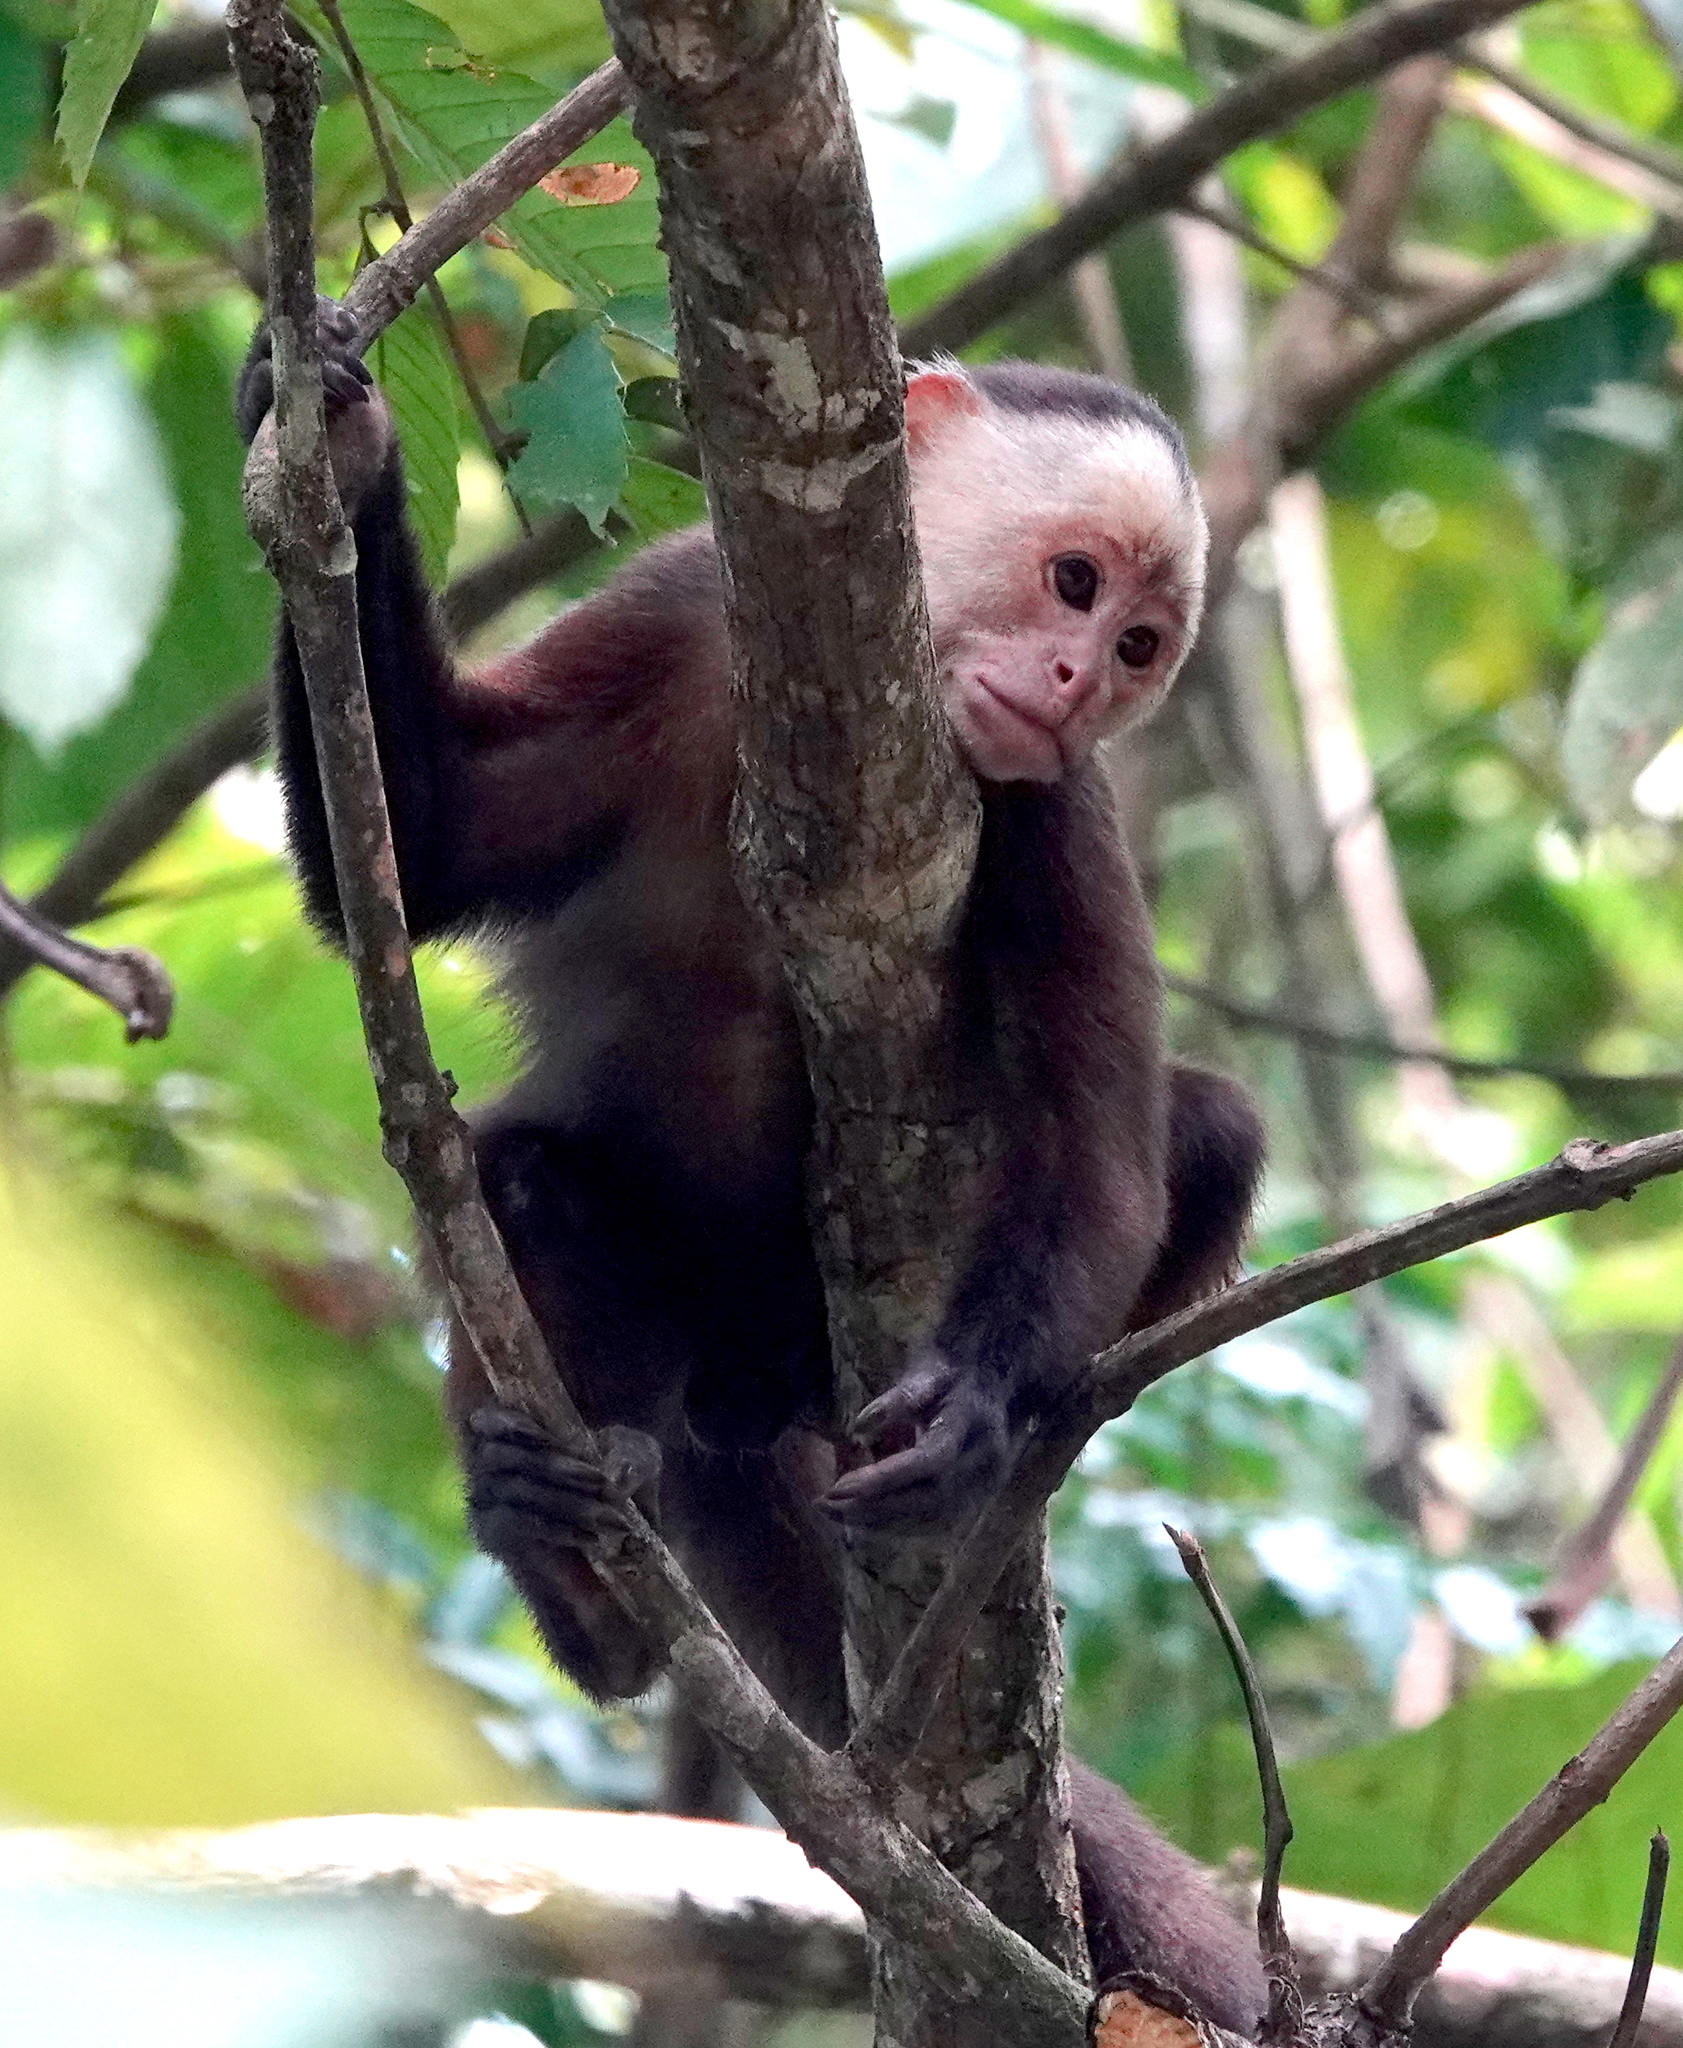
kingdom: Animalia
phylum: Chordata
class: Mammalia
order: Primates
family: Cebidae
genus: Cebus
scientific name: Cebus versicolor
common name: Varied capuchin
